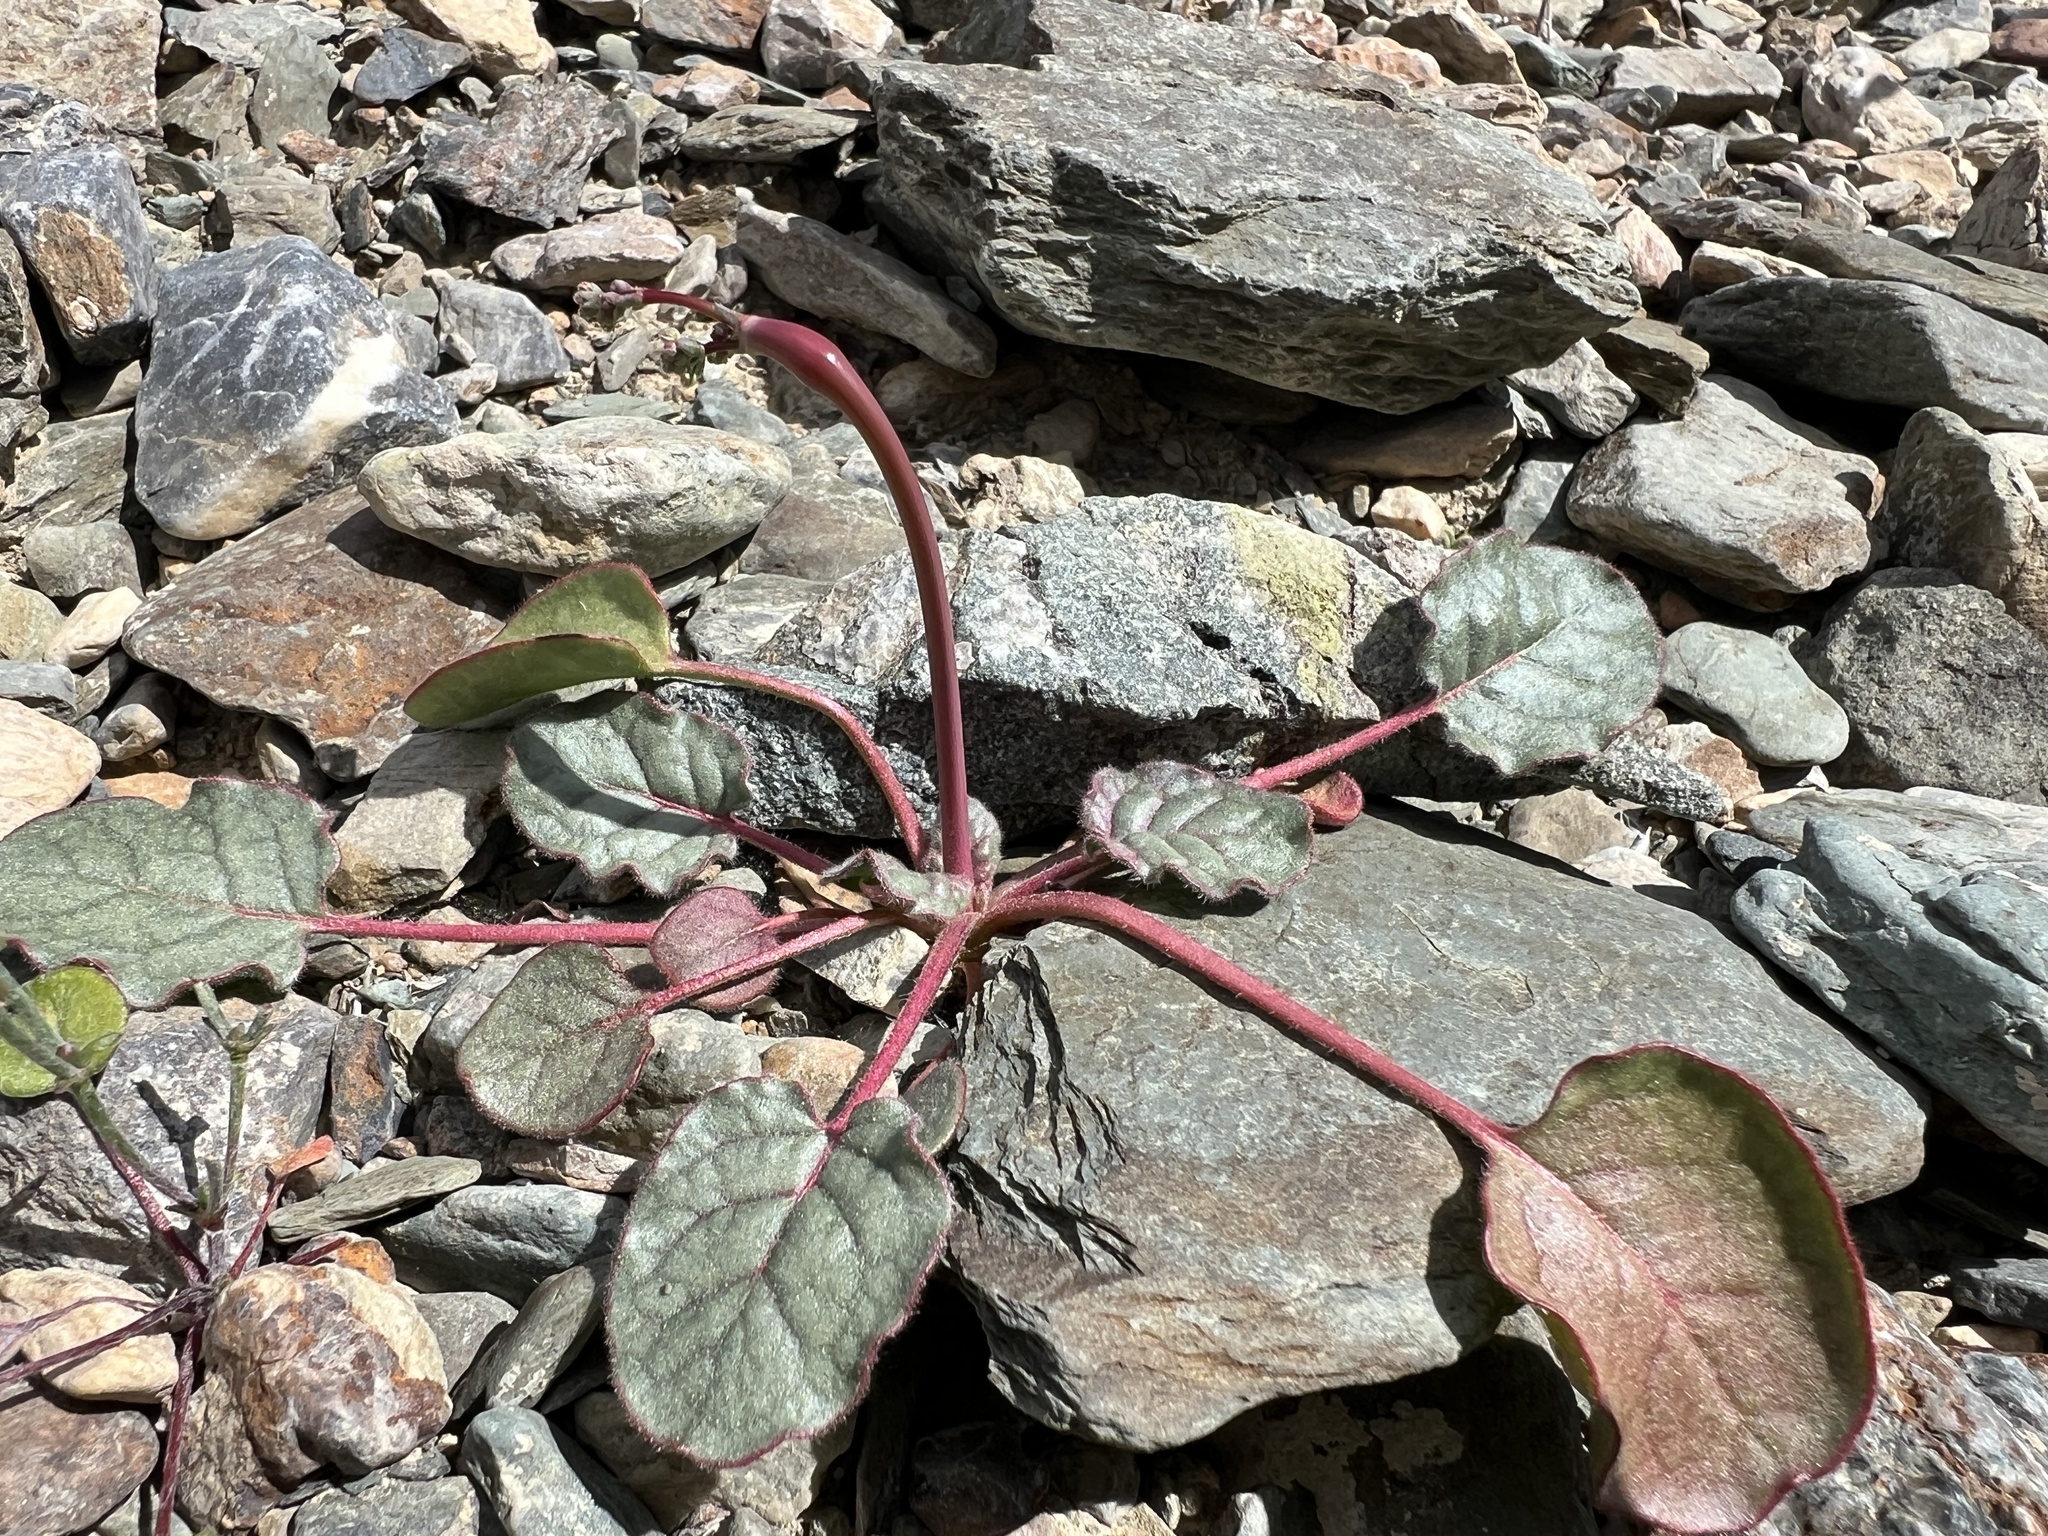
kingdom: Plantae
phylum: Tracheophyta
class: Magnoliopsida
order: Caryophyllales
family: Polygonaceae
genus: Eriogonum
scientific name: Eriogonum inflatum
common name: Desert trumpet
